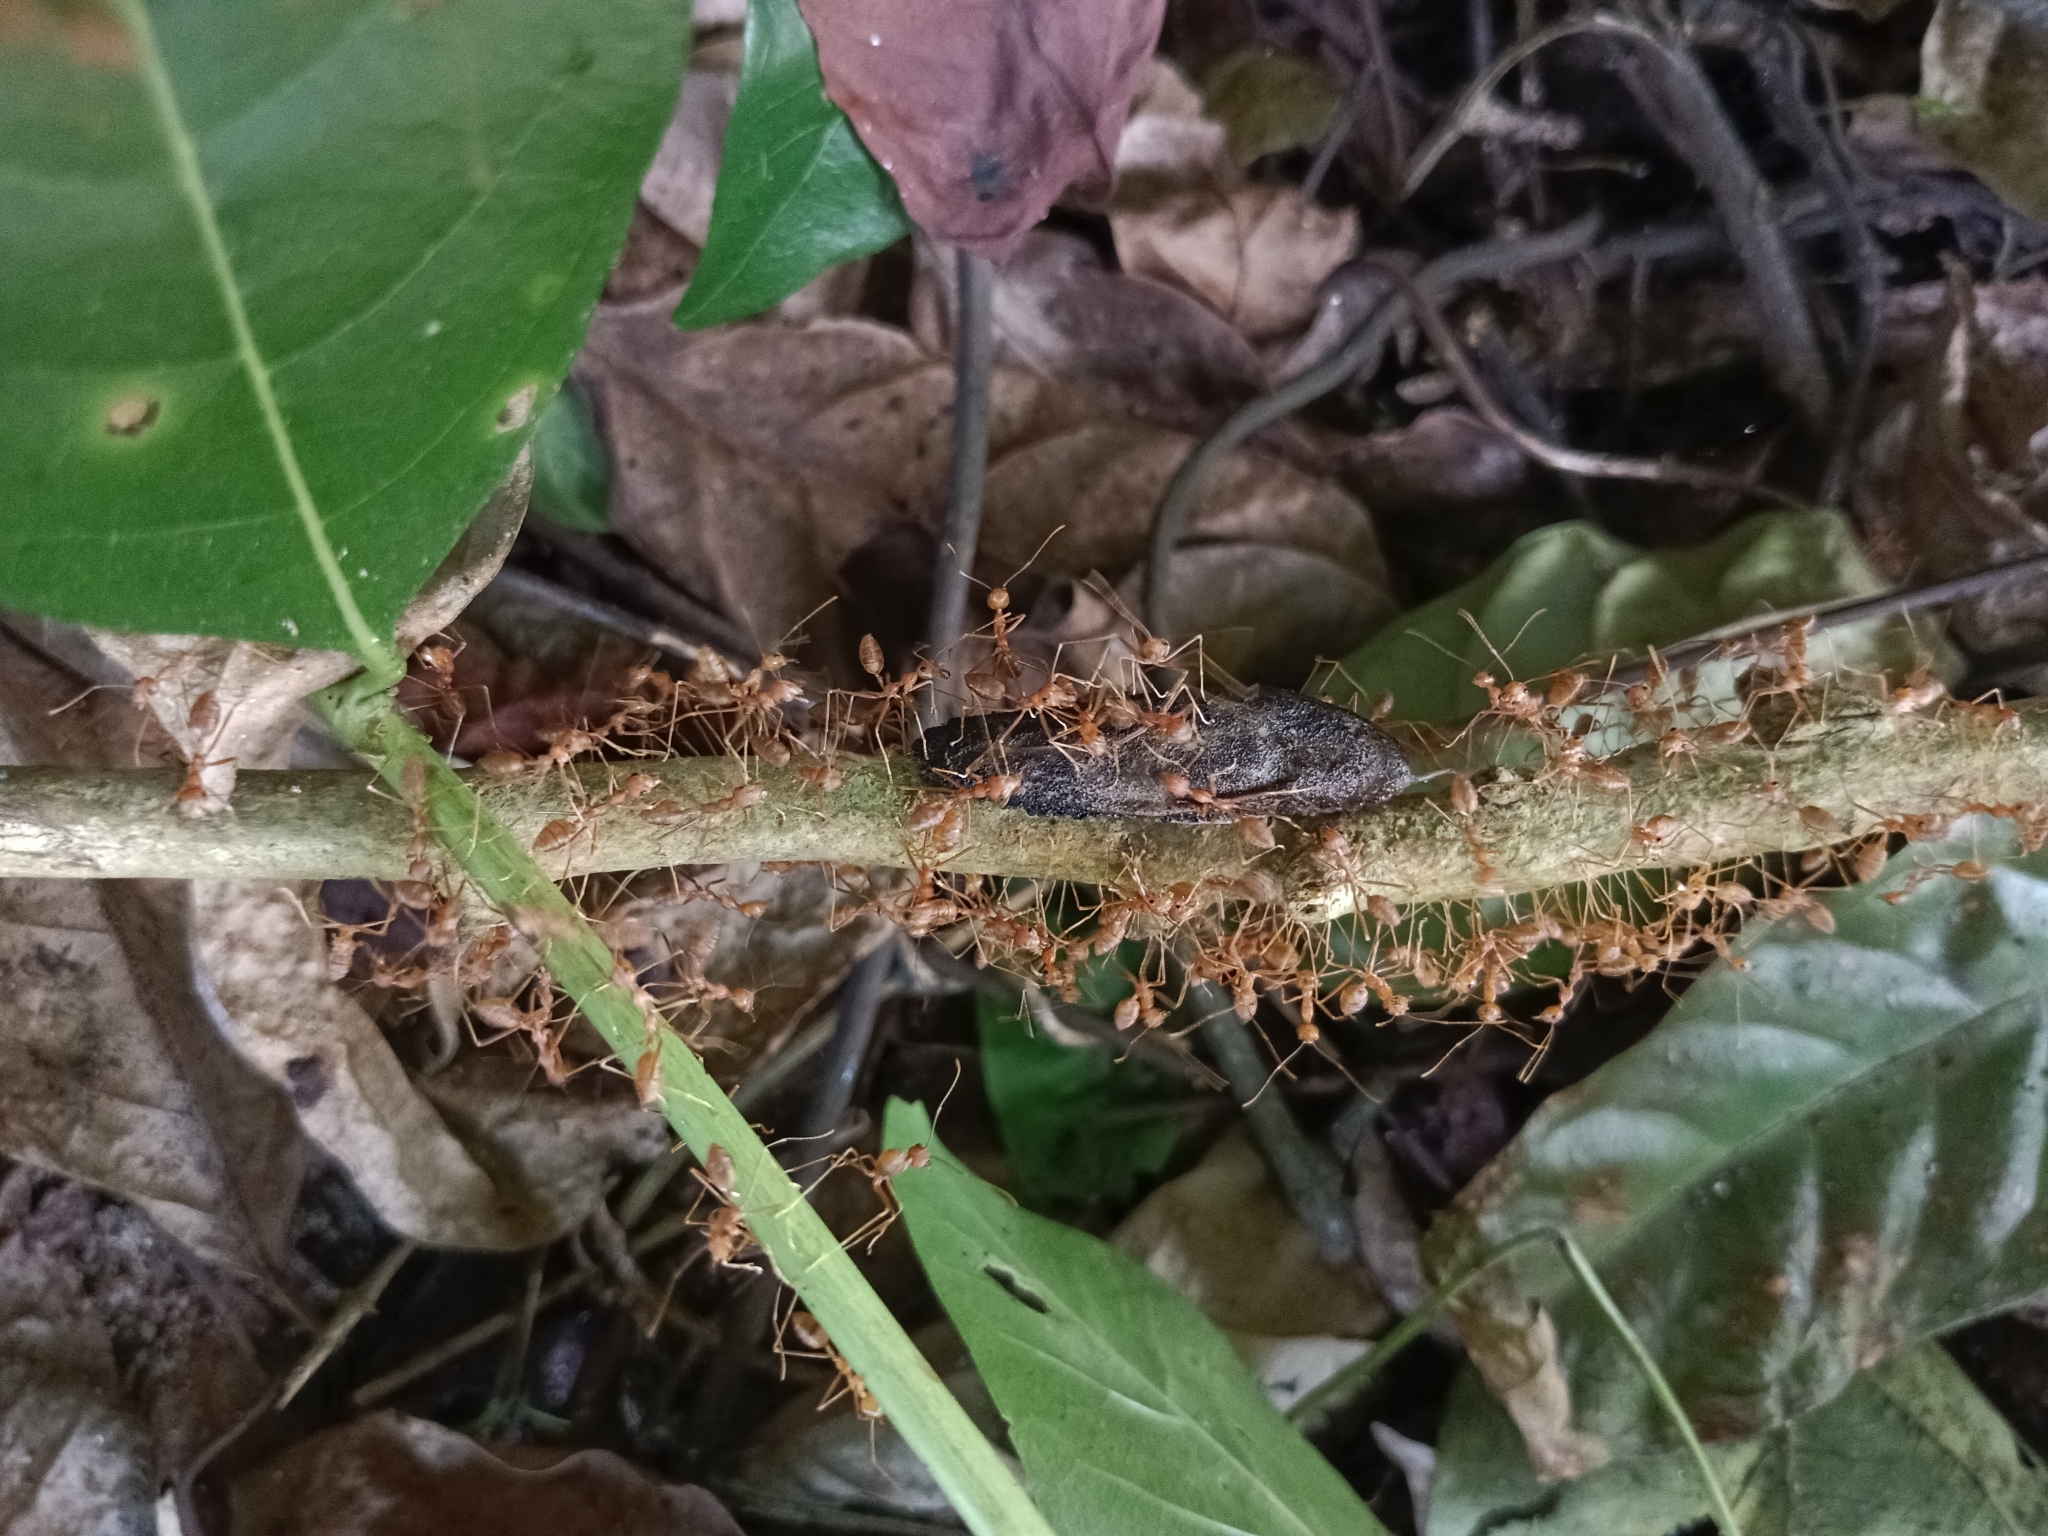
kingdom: Animalia
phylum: Arthropoda
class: Insecta
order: Hymenoptera
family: Formicidae
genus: Oecophylla
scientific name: Oecophylla smaragdina
